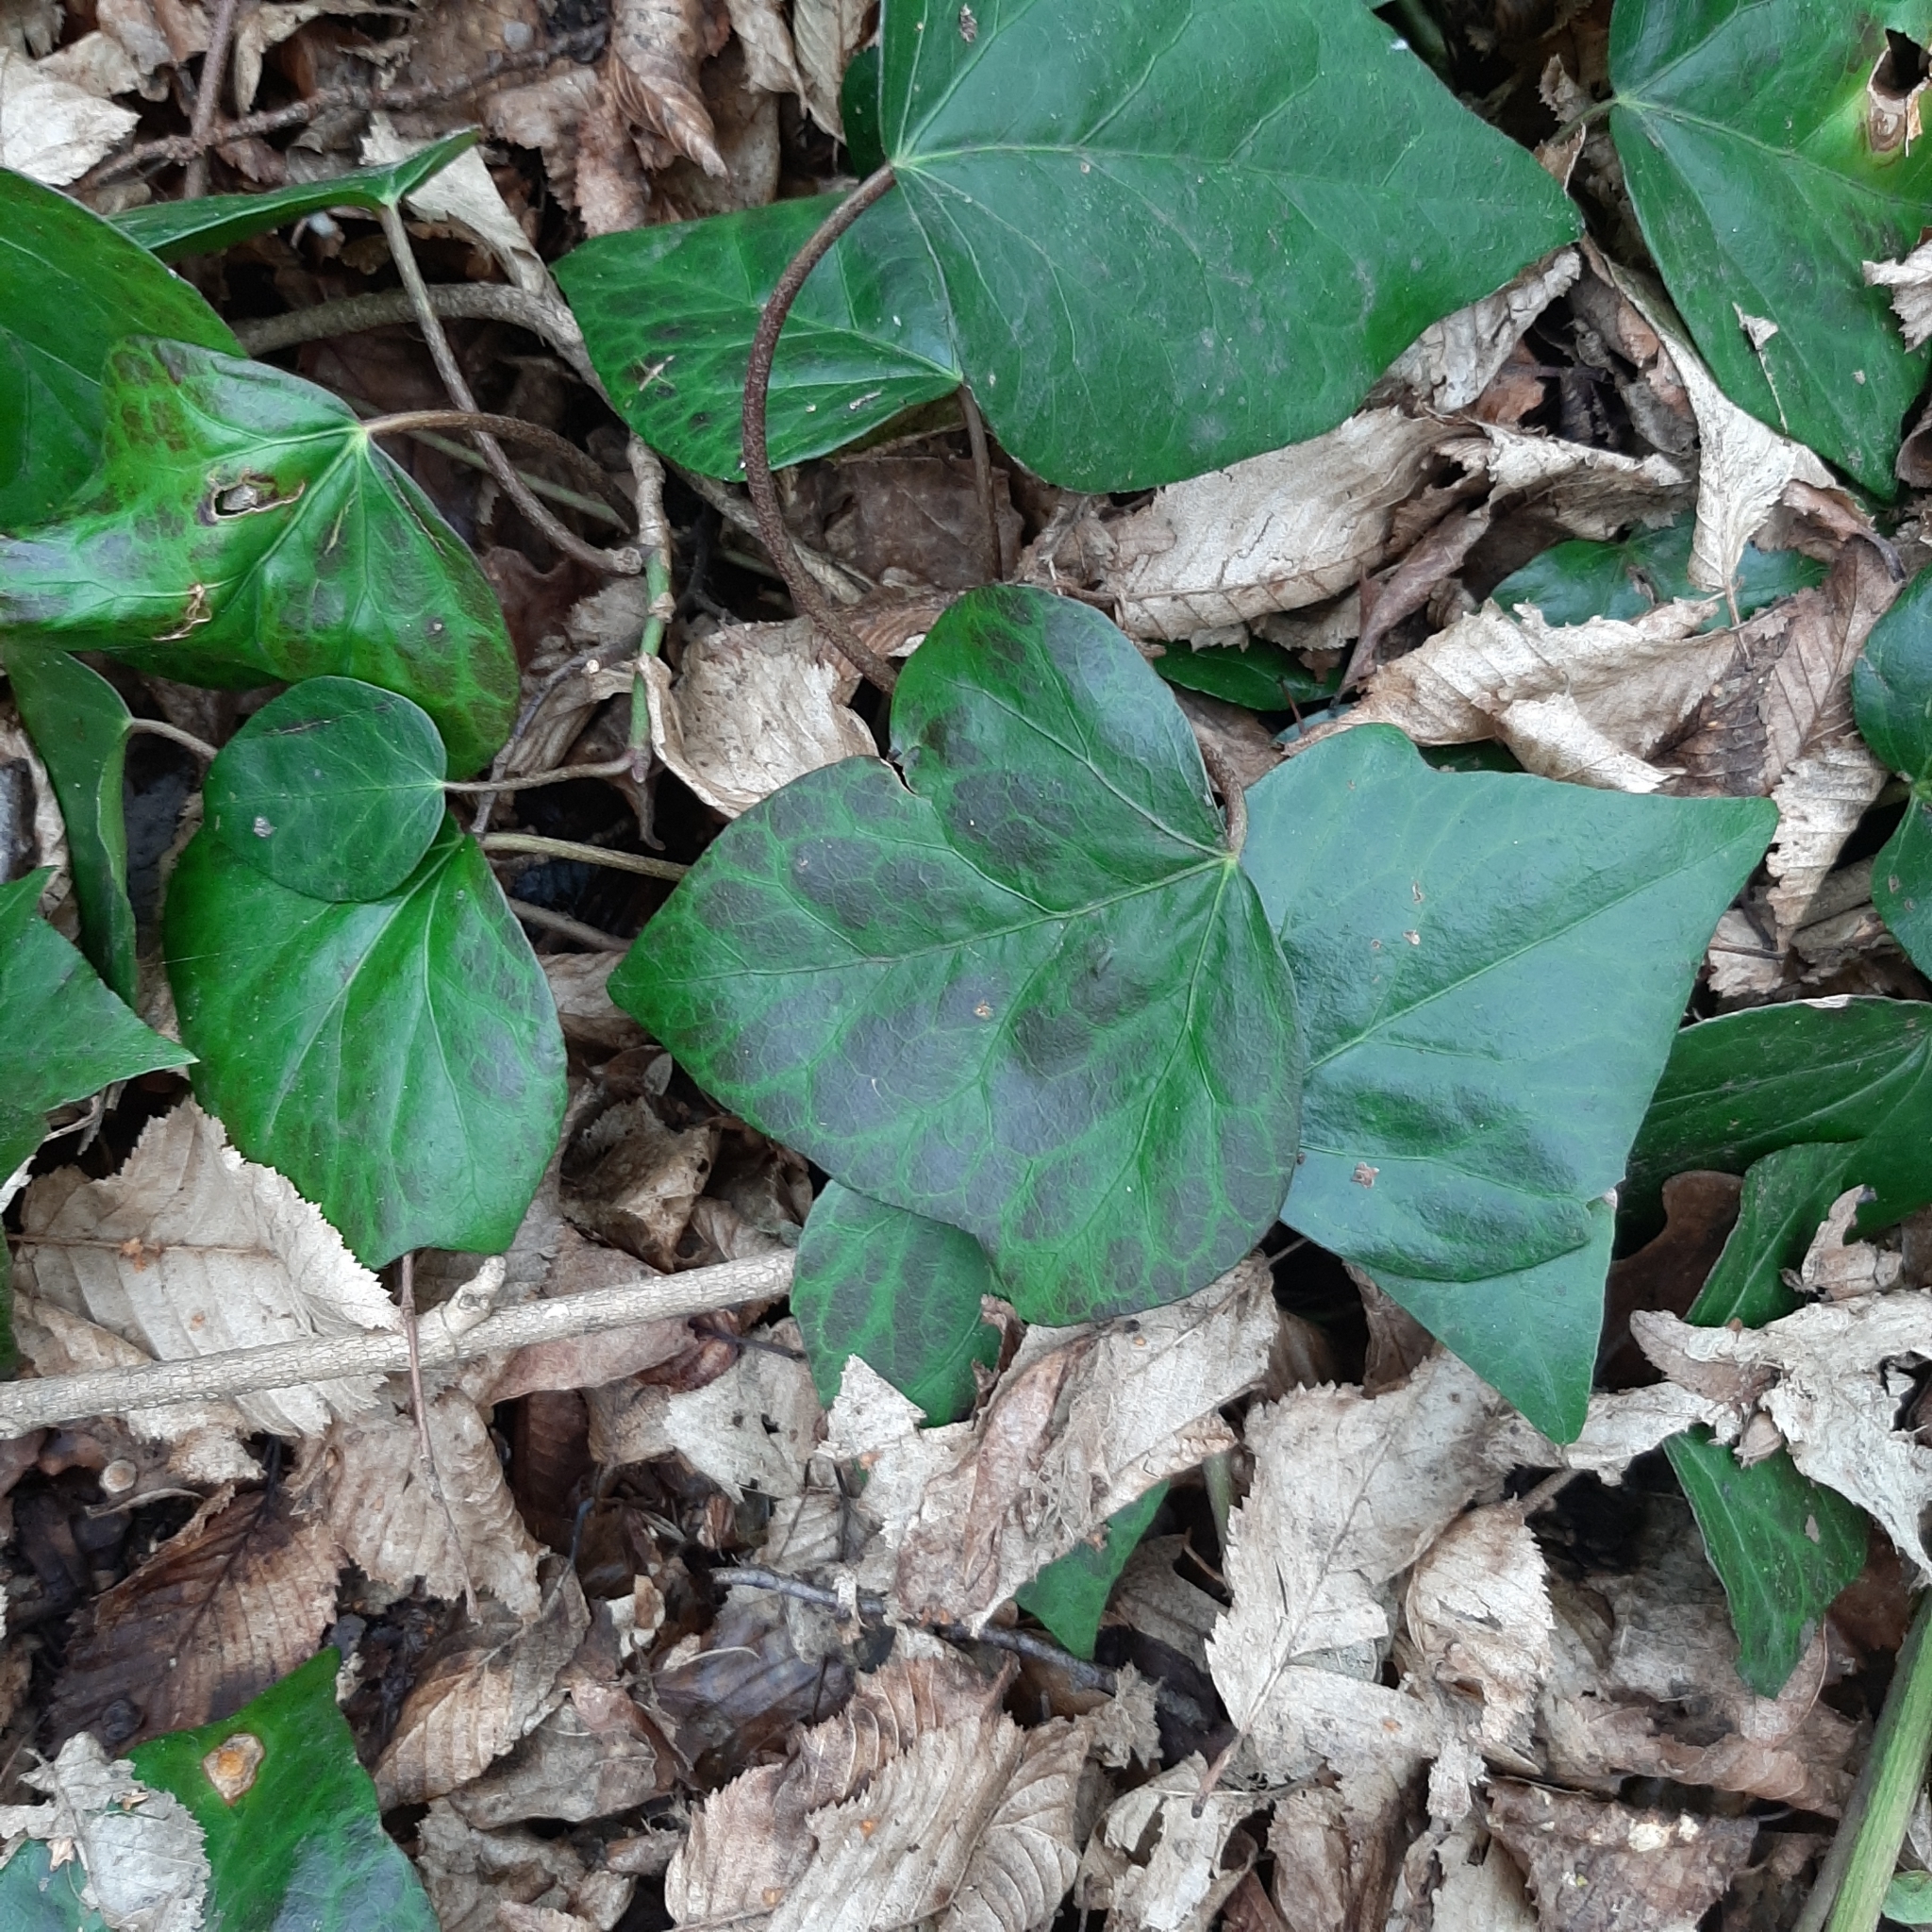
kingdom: Plantae
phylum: Tracheophyta
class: Magnoliopsida
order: Apiales
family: Araliaceae
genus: Hedera
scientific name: Hedera helix
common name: Ivy
